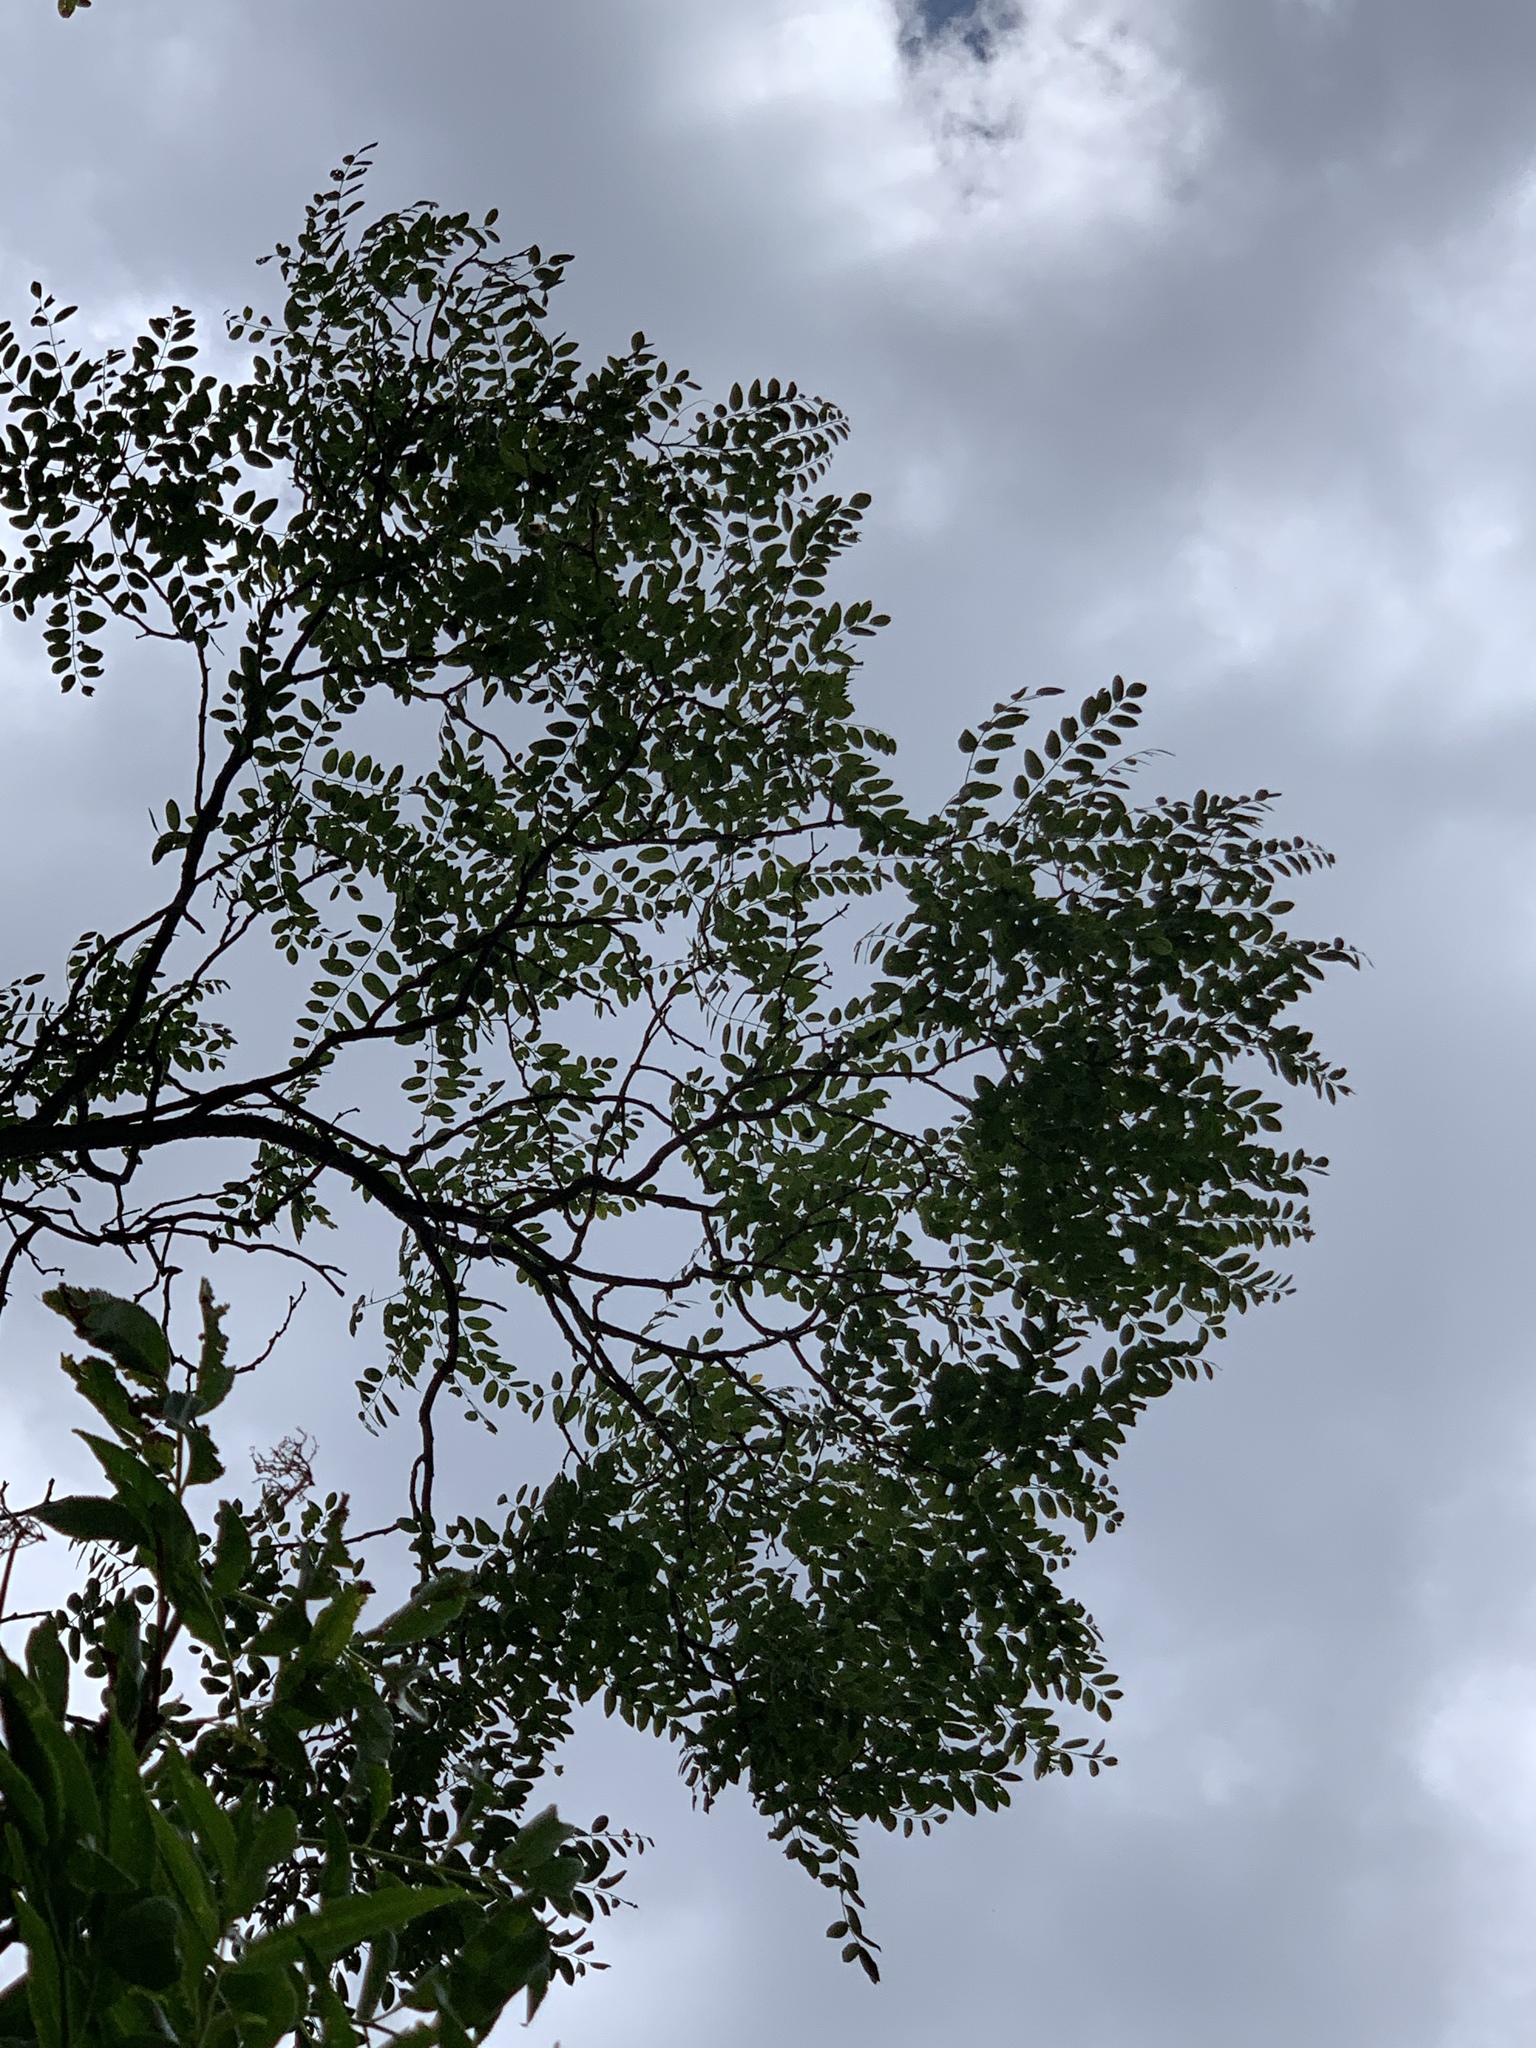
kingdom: Plantae
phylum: Tracheophyta
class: Magnoliopsida
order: Fabales
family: Fabaceae
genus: Robinia
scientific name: Robinia neomexicana
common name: New mexico locust
